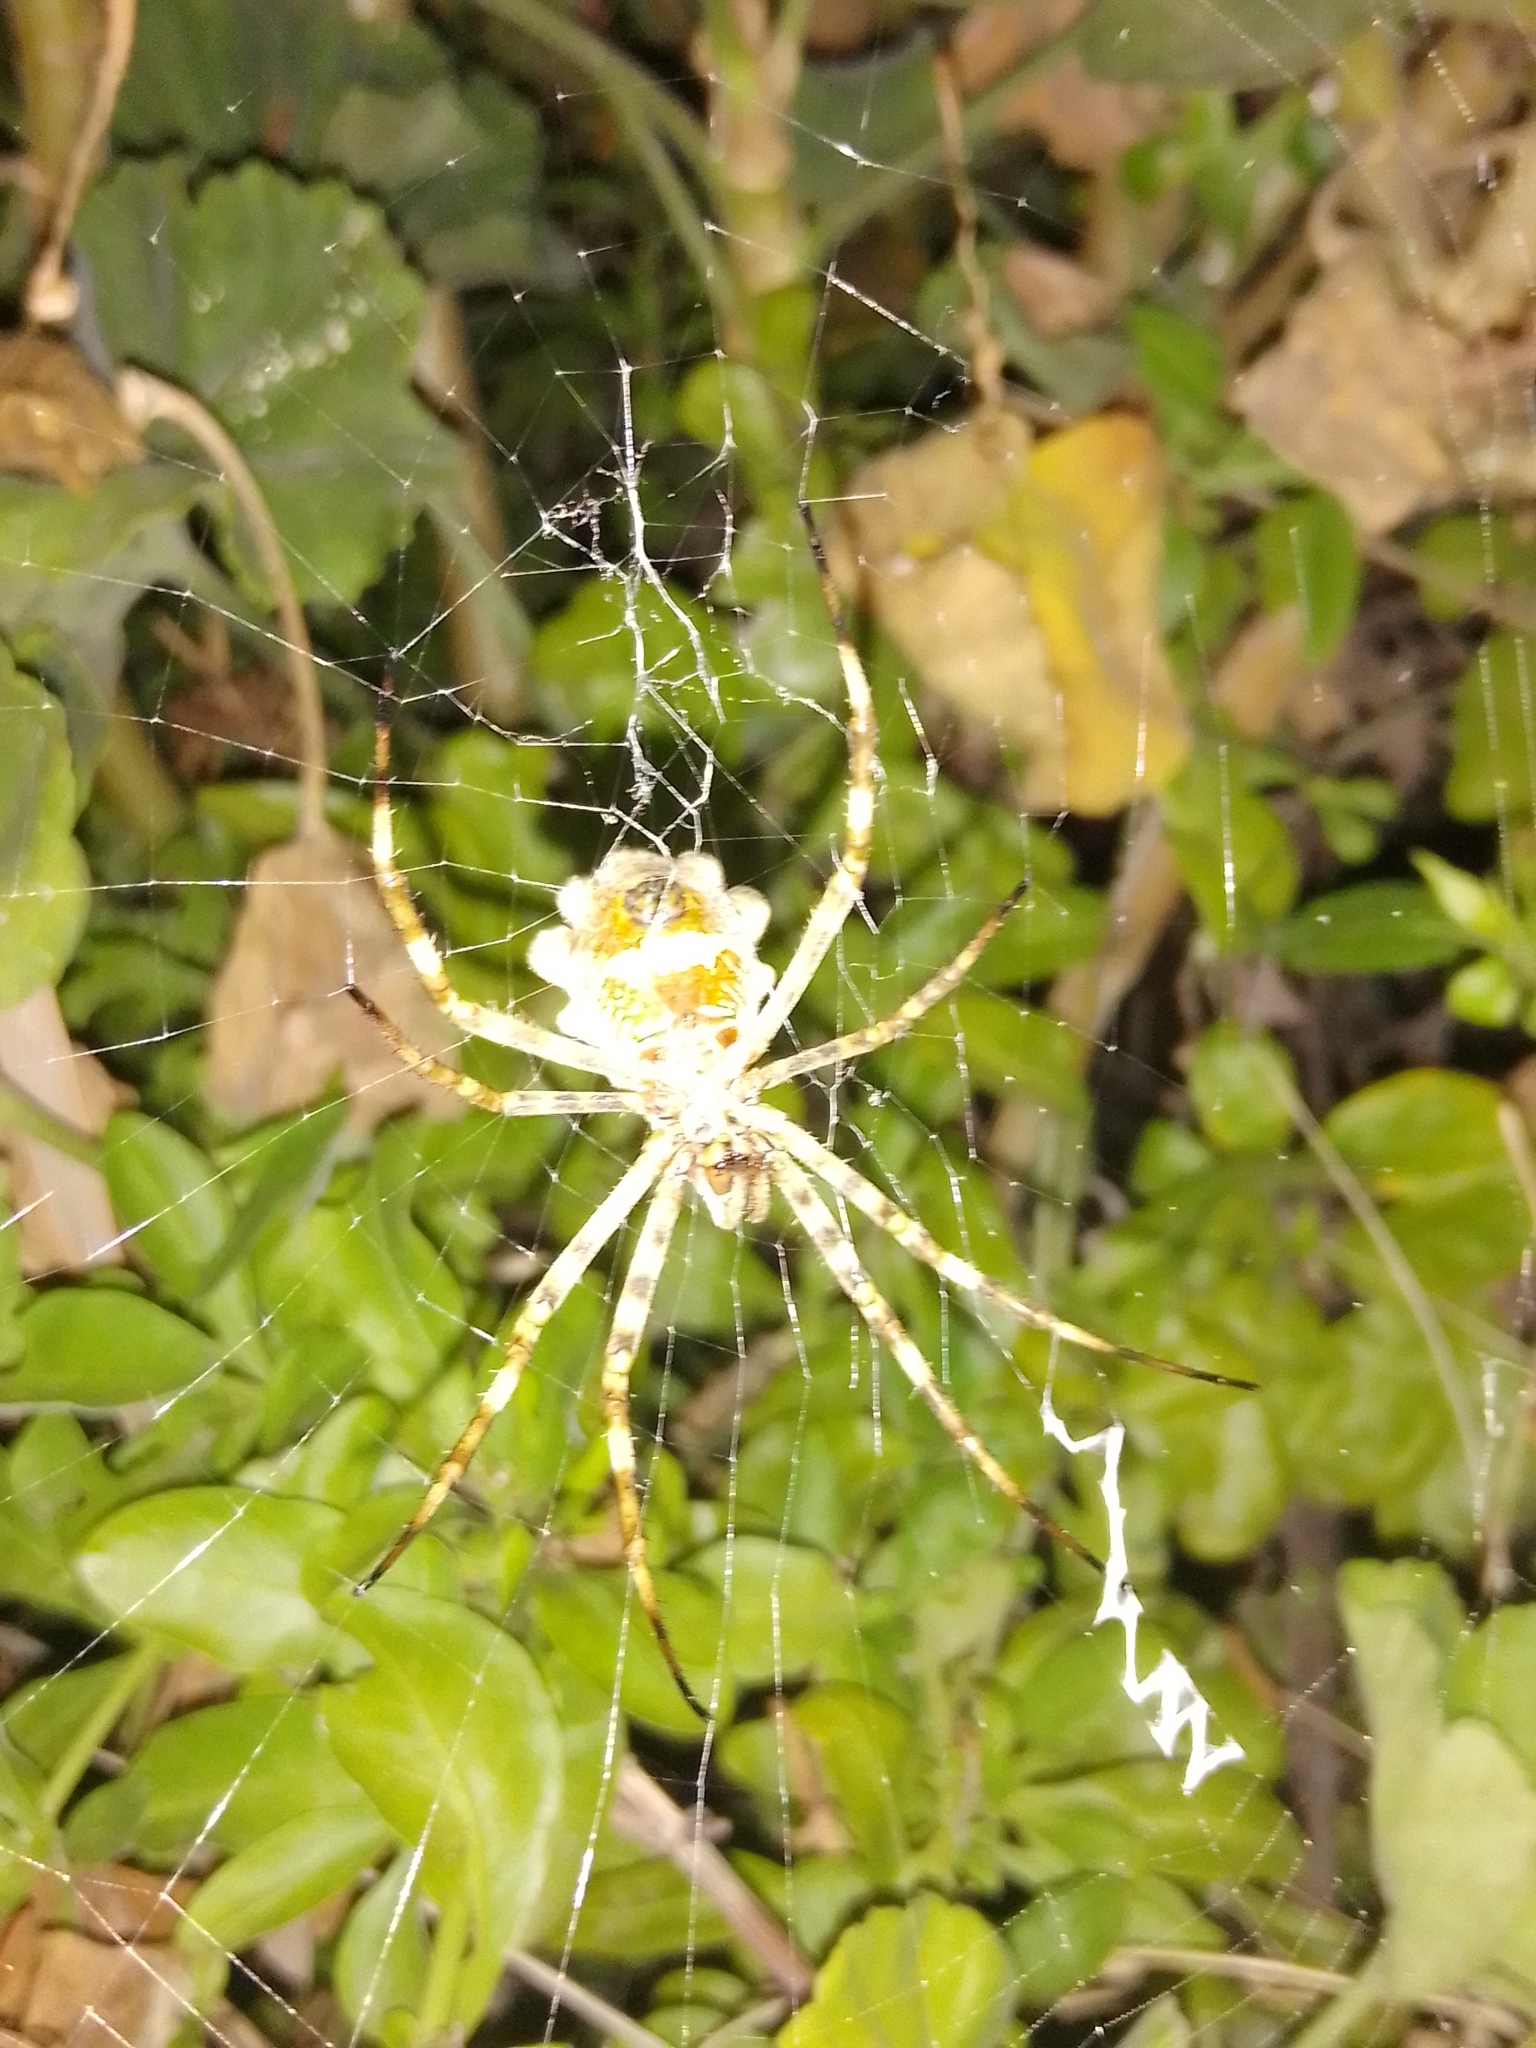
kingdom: Animalia
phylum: Arthropoda
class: Arachnida
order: Araneae
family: Araneidae
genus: Argiope
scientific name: Argiope argentata
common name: Orb weavers
